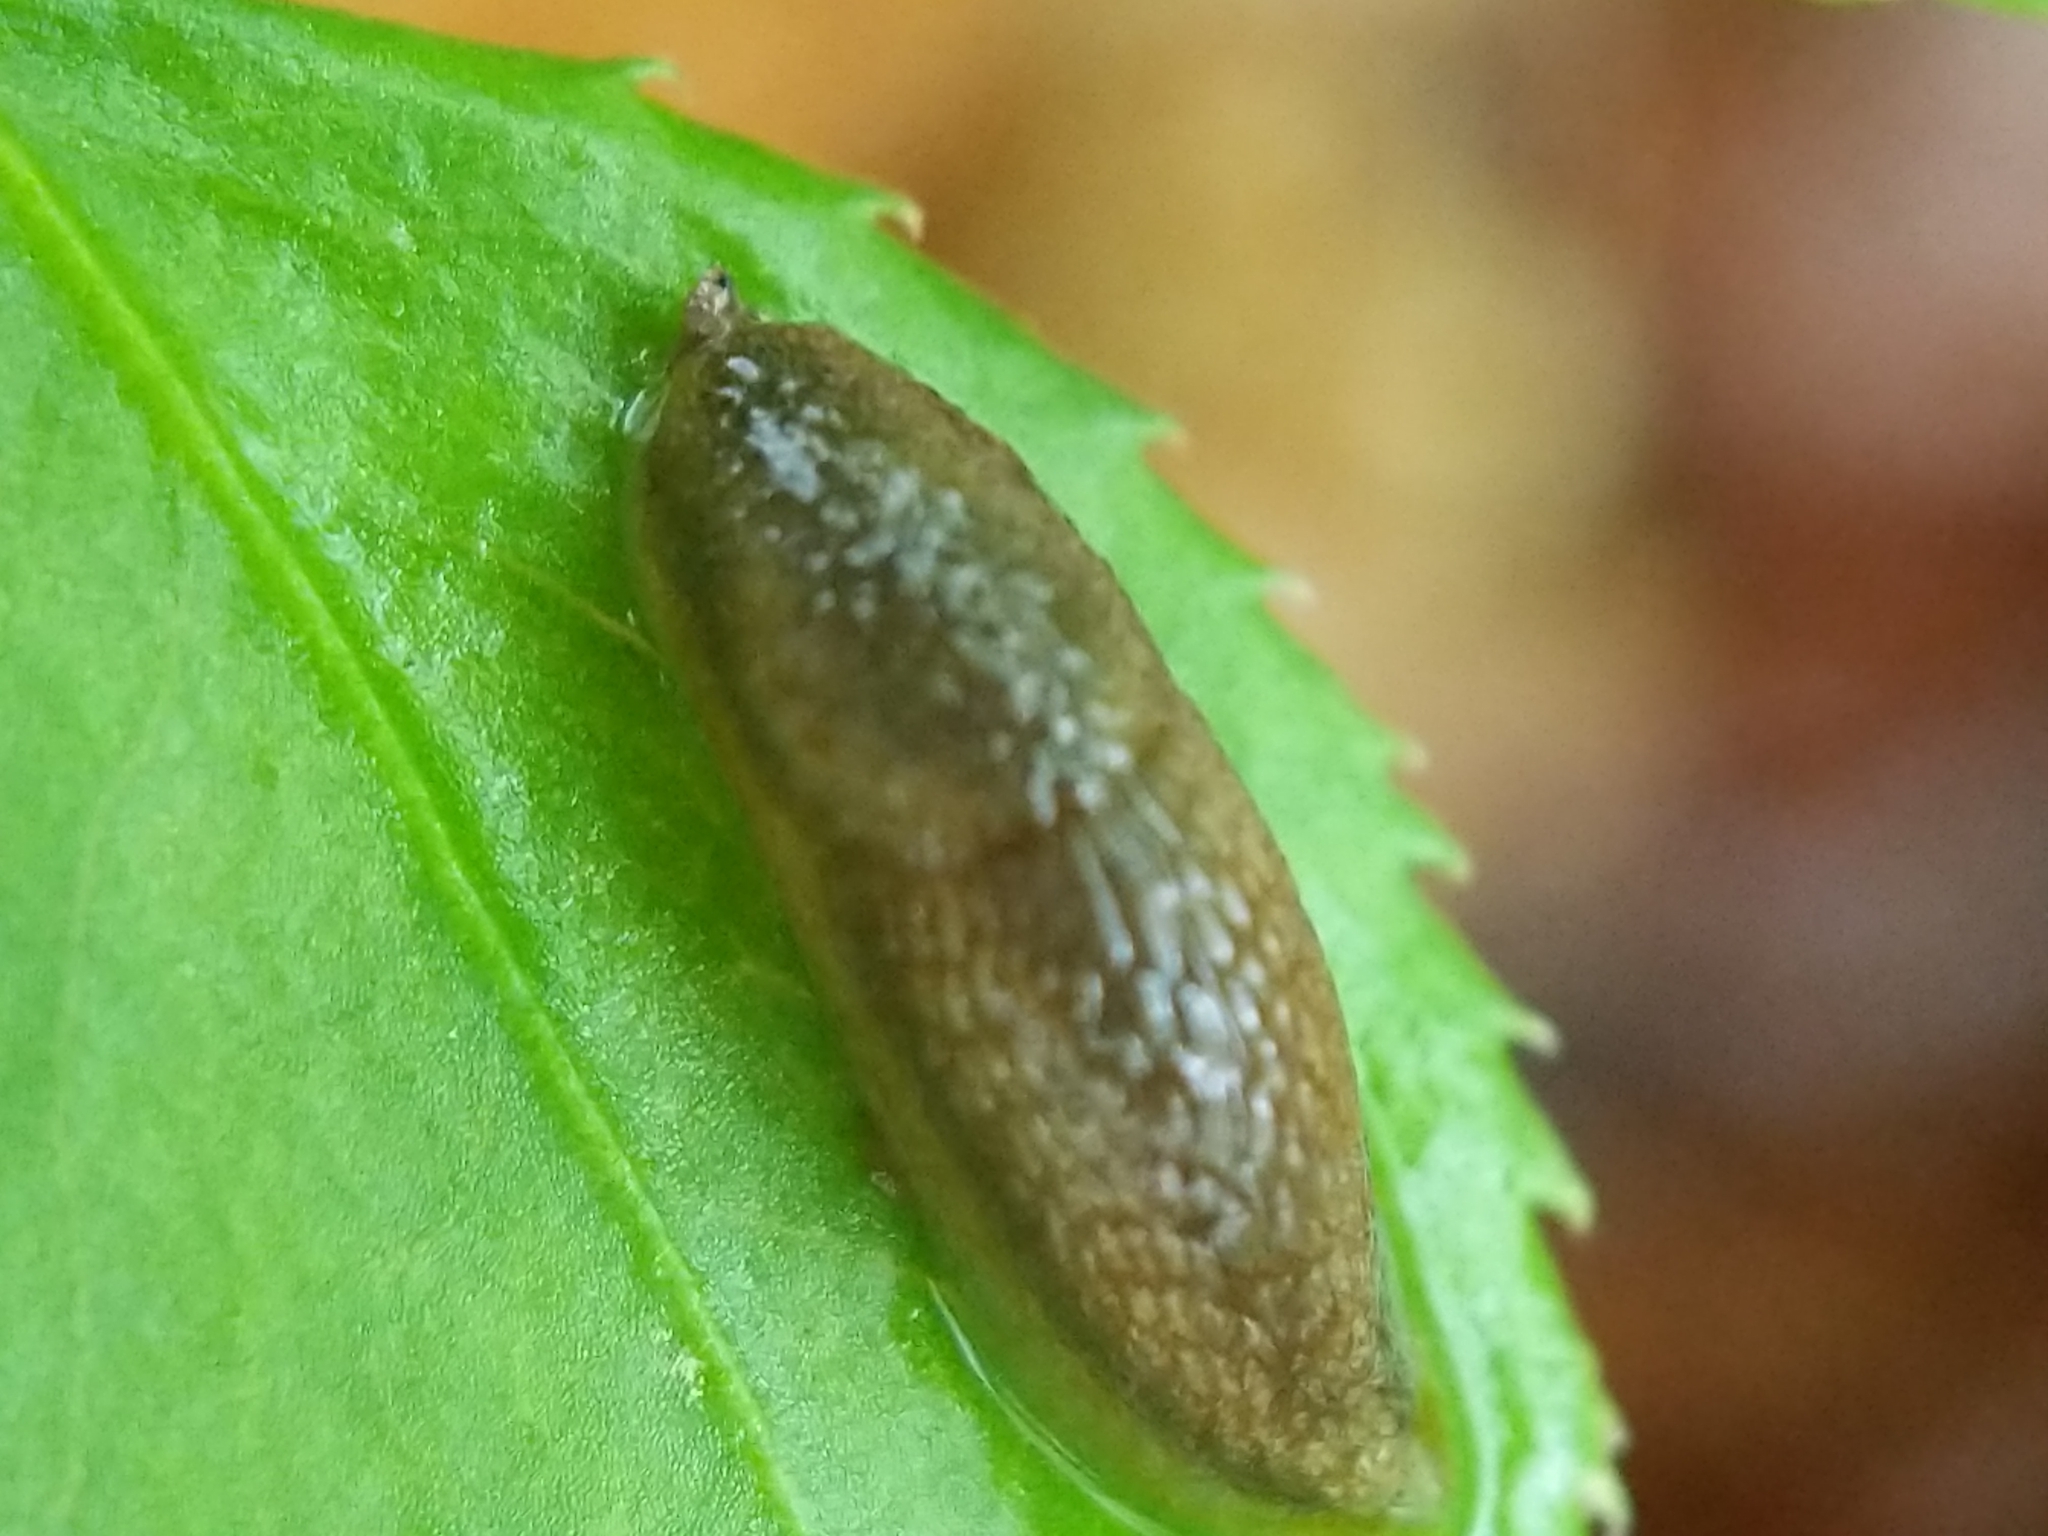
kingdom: Animalia
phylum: Mollusca
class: Gastropoda
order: Stylommatophora
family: Arionidae
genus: Mesarion
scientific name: Mesarion
